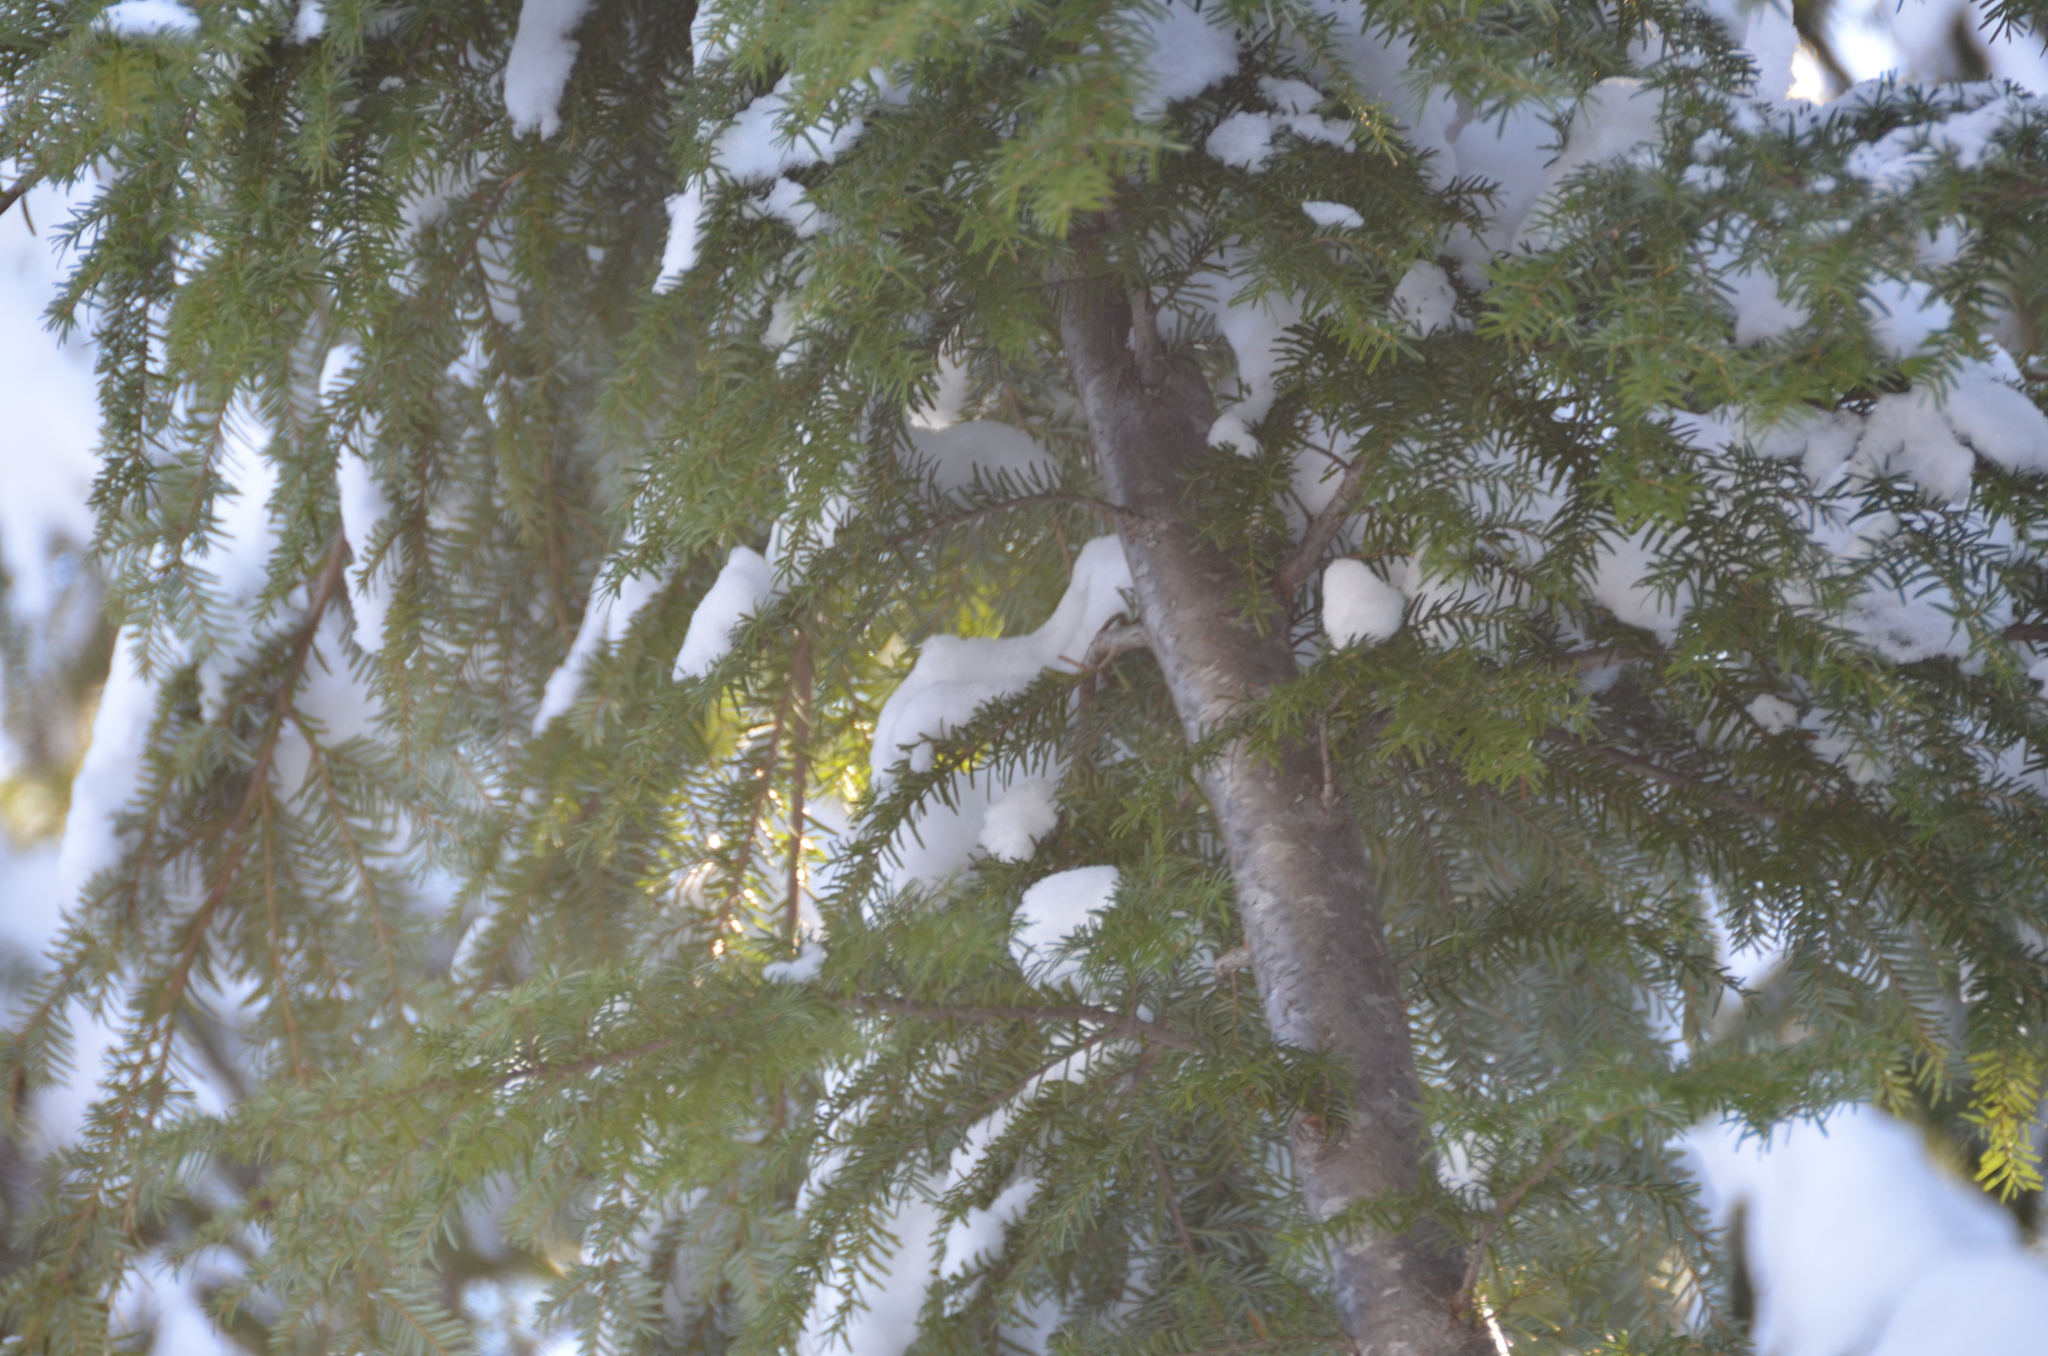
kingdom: Plantae
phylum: Tracheophyta
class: Pinopsida
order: Pinales
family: Pinaceae
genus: Tsuga
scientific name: Tsuga heterophylla
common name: Western hemlock
